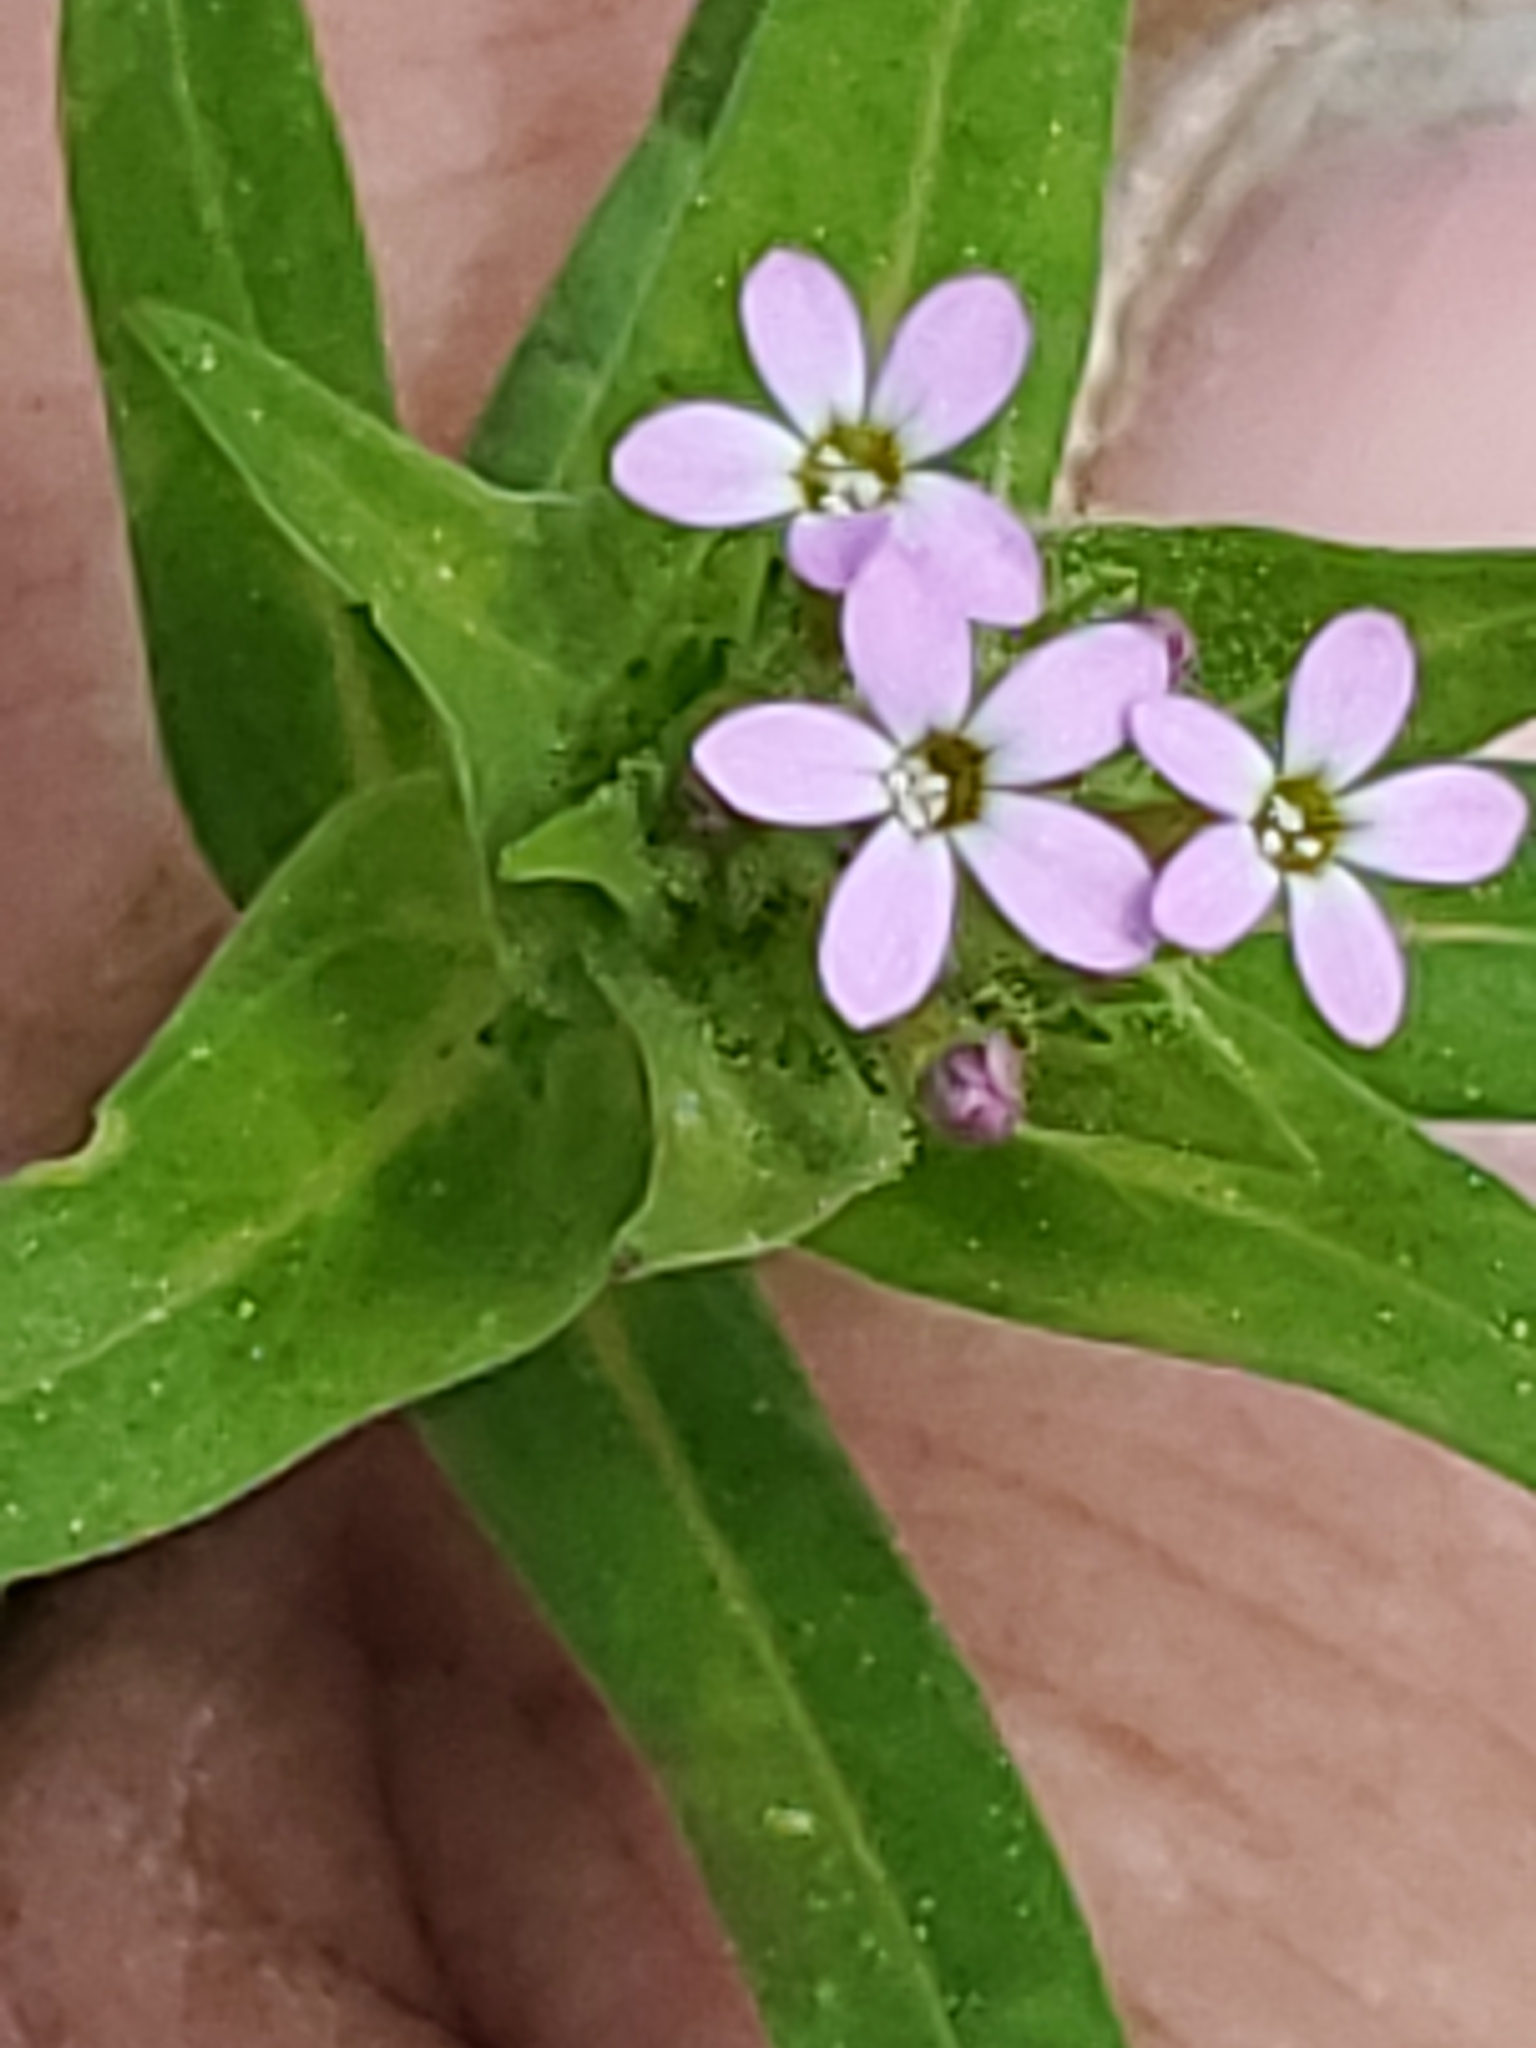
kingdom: Plantae
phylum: Tracheophyta
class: Magnoliopsida
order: Ericales
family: Polemoniaceae
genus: Collomia
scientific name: Collomia linearis
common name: Tiny trumpet
